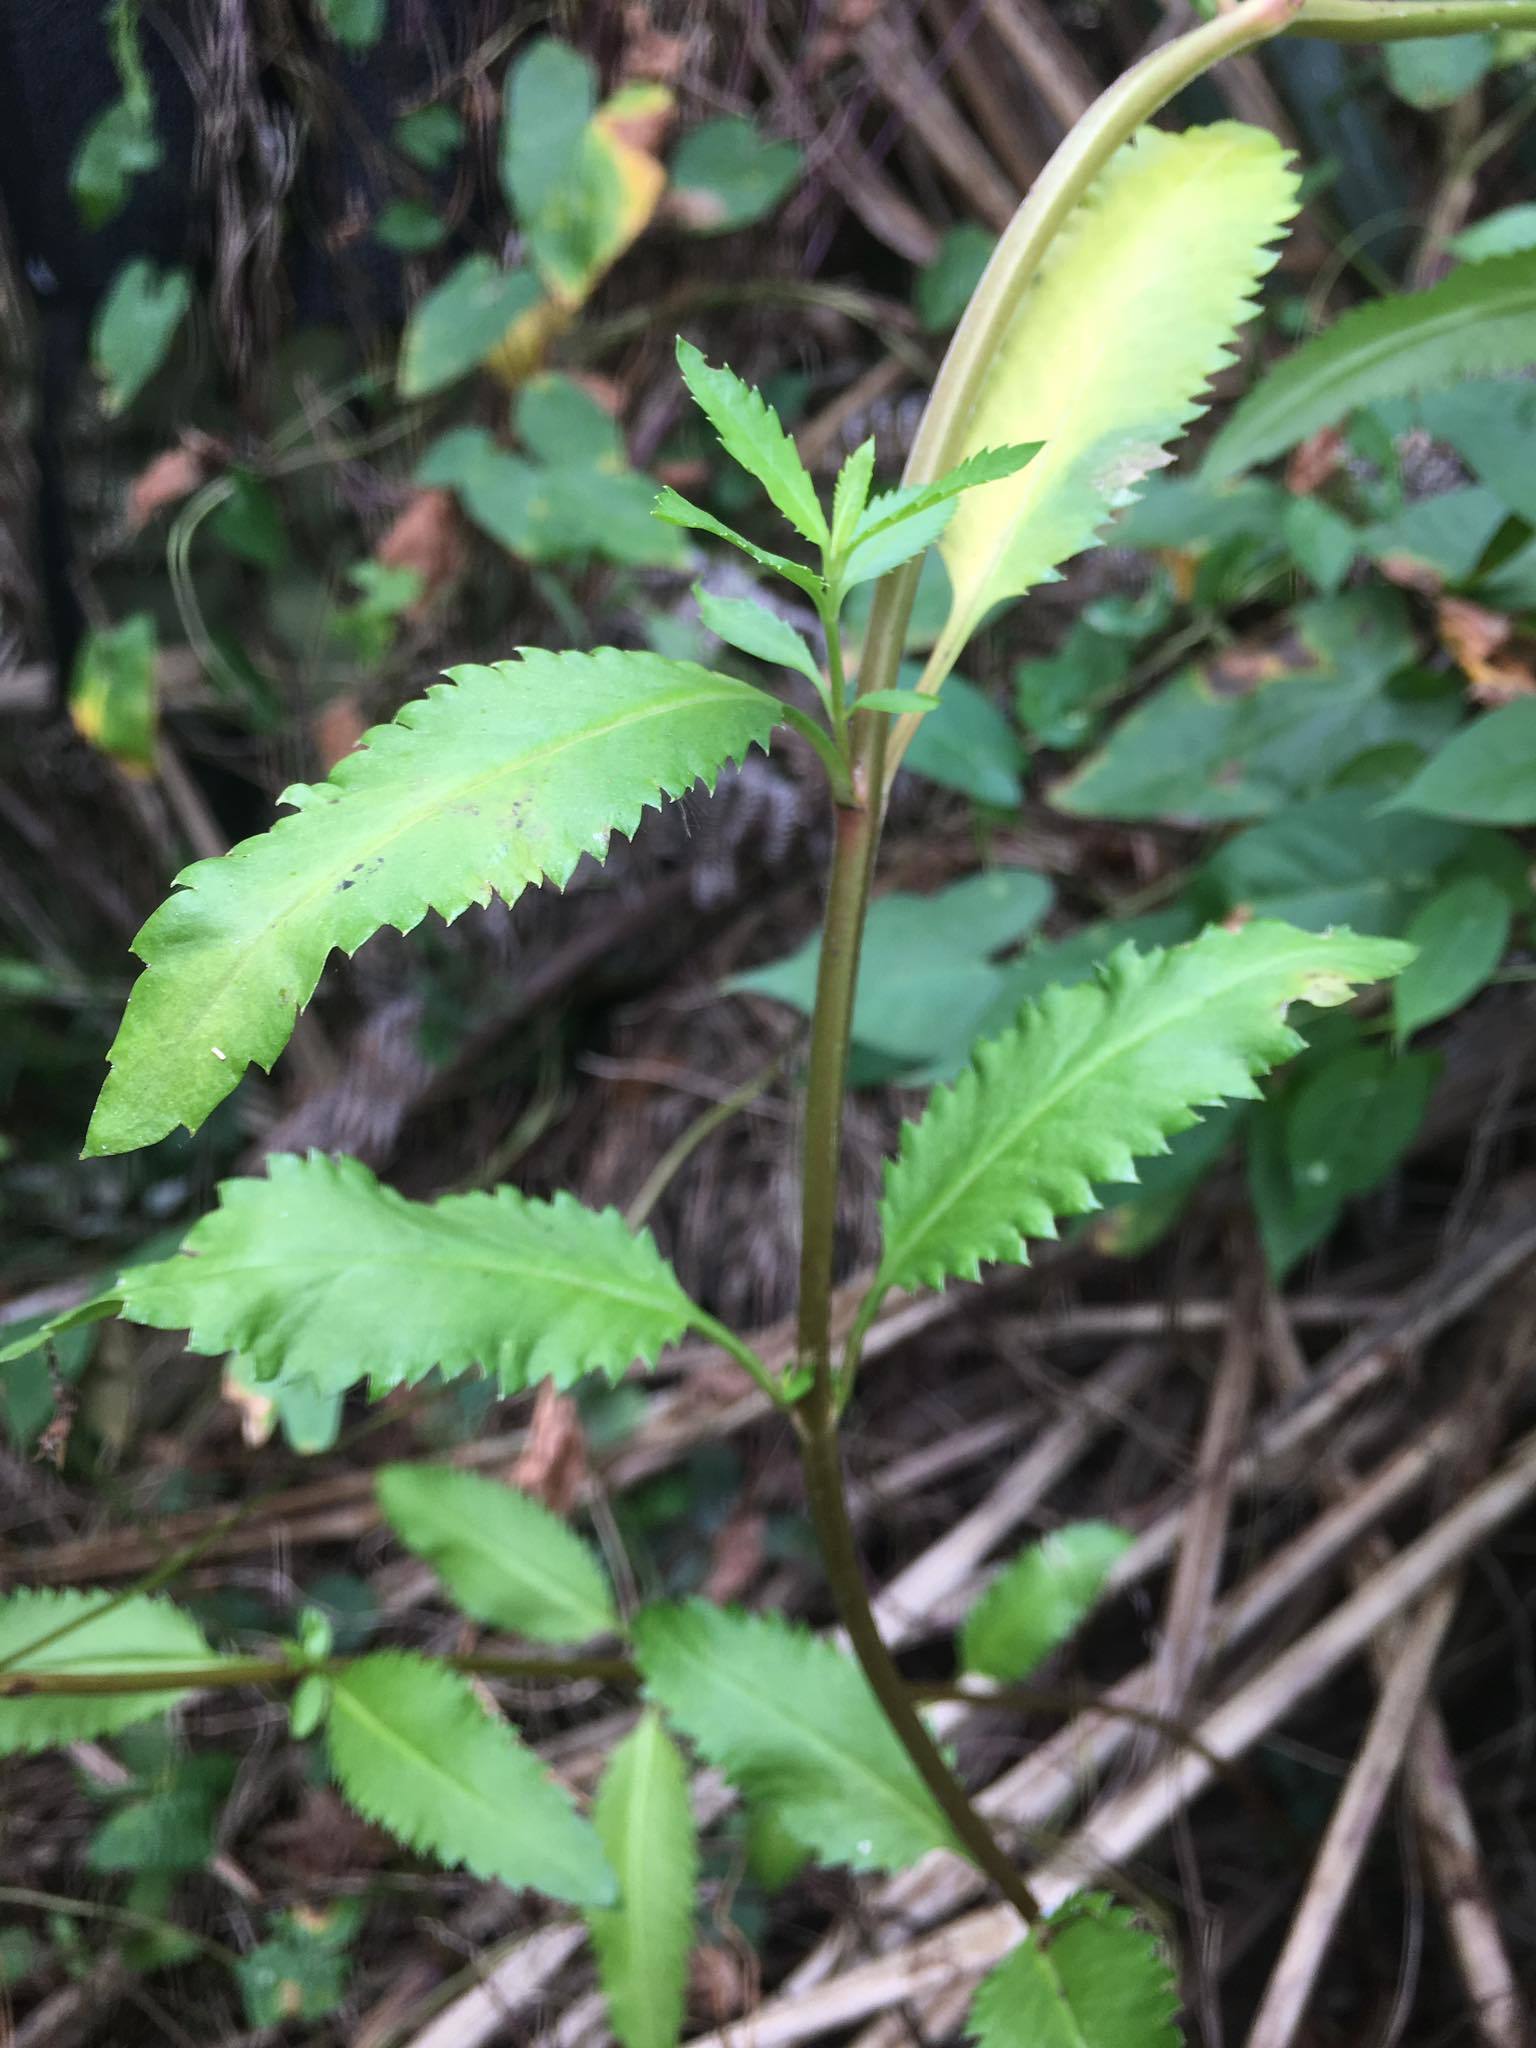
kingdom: Plantae
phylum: Tracheophyta
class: Magnoliopsida
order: Saxifragales
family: Haloragaceae
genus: Haloragis
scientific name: Haloragis erecta
